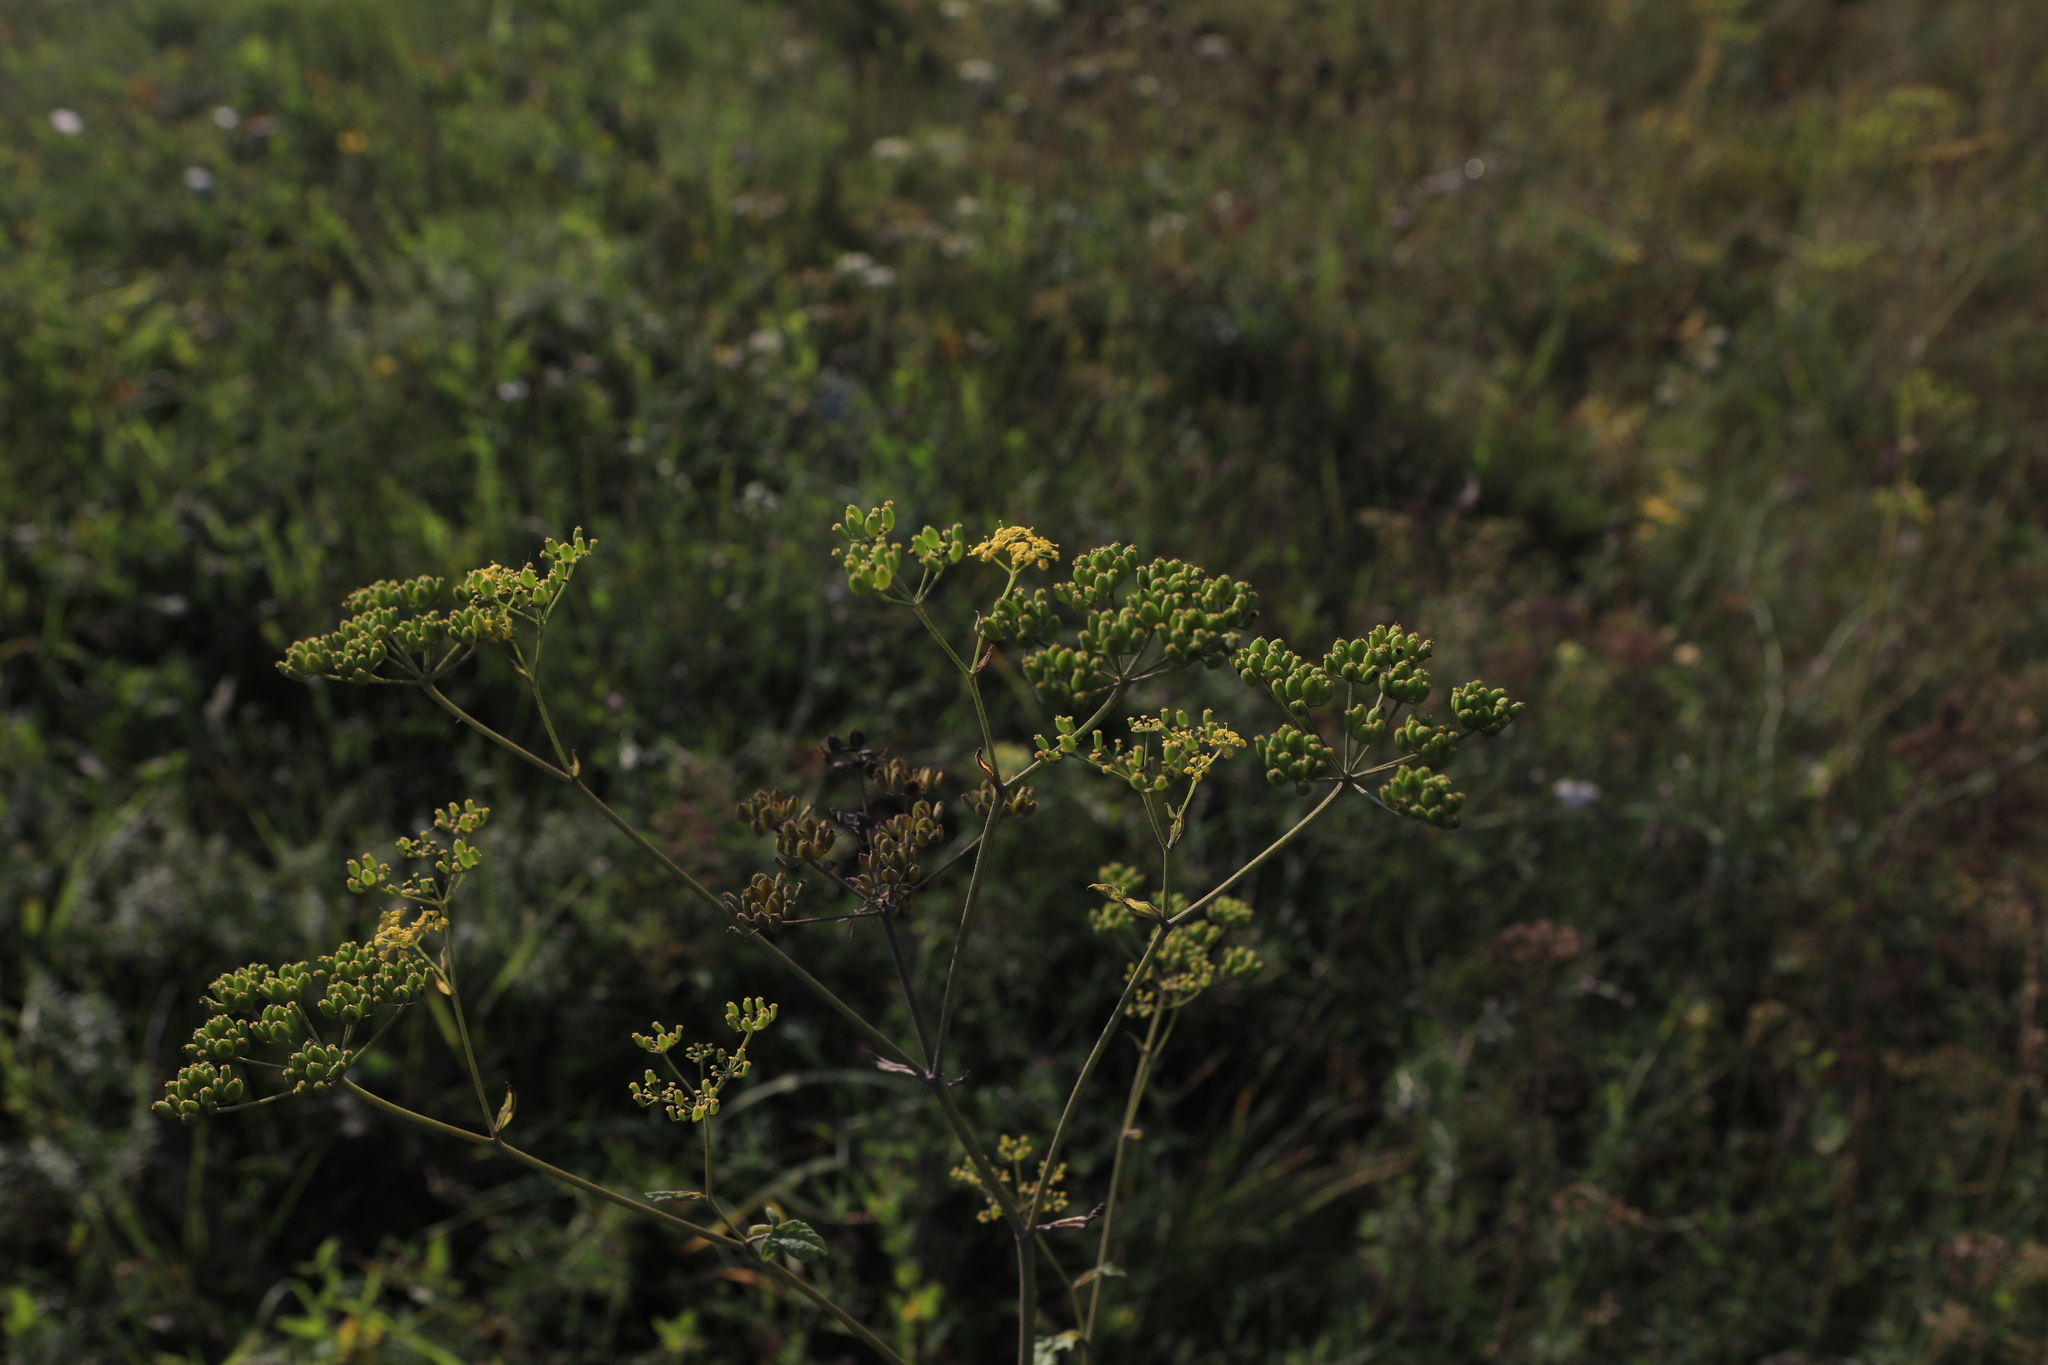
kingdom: Plantae
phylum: Tracheophyta
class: Magnoliopsida
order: Apiales
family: Apiaceae
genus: Pastinaca
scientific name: Pastinaca sativa
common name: Wild parsnip
